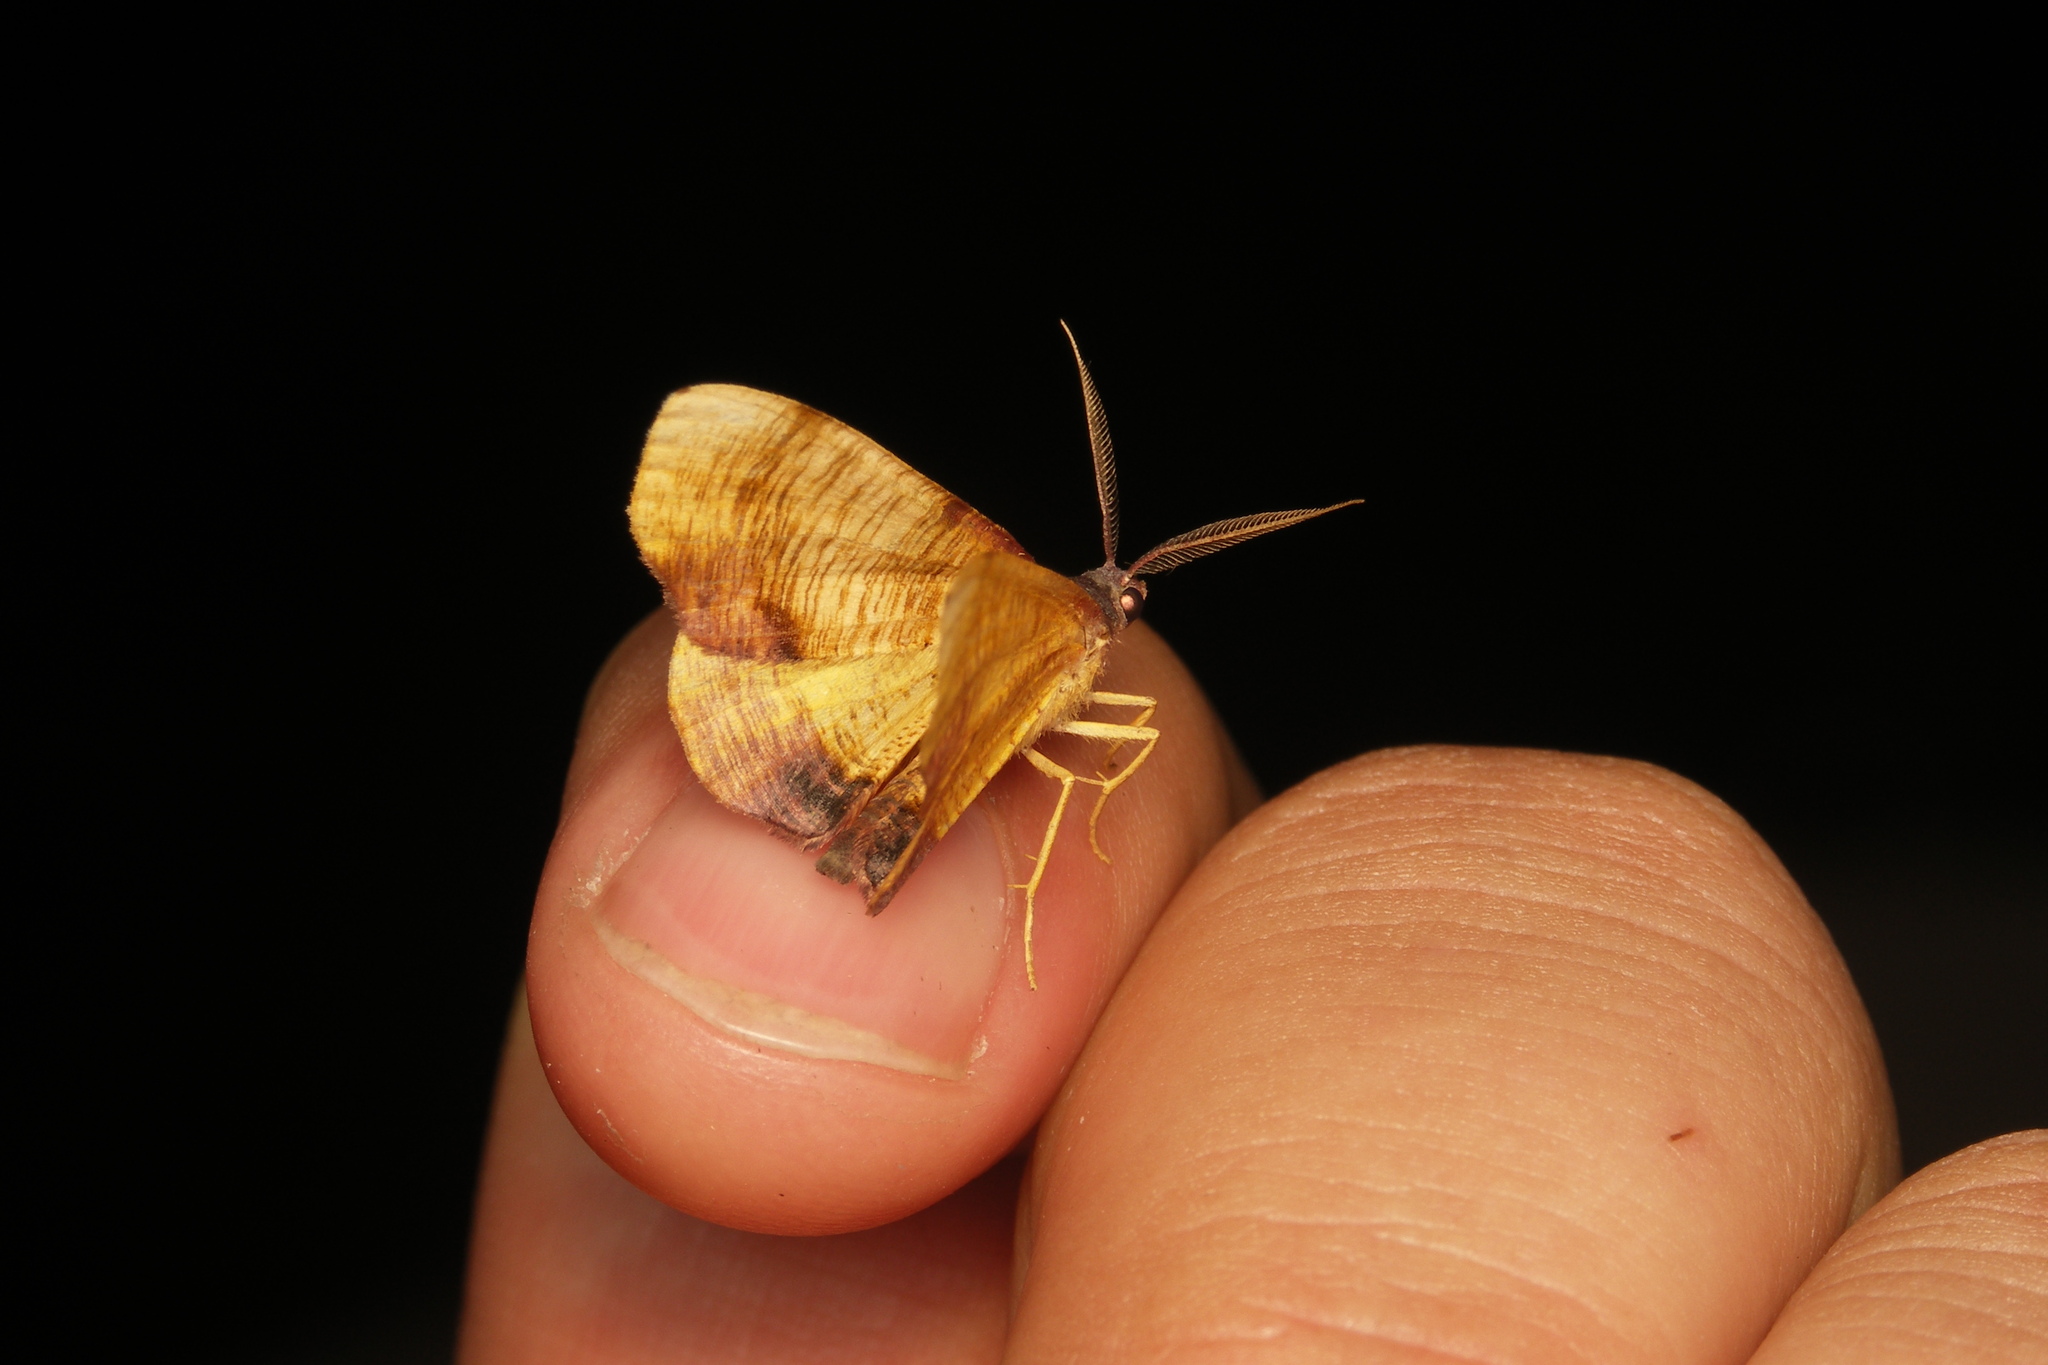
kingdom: Animalia
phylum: Arthropoda
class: Insecta
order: Lepidoptera
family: Geometridae
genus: Plagodis
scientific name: Plagodis dolabraria
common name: Scorched wing
